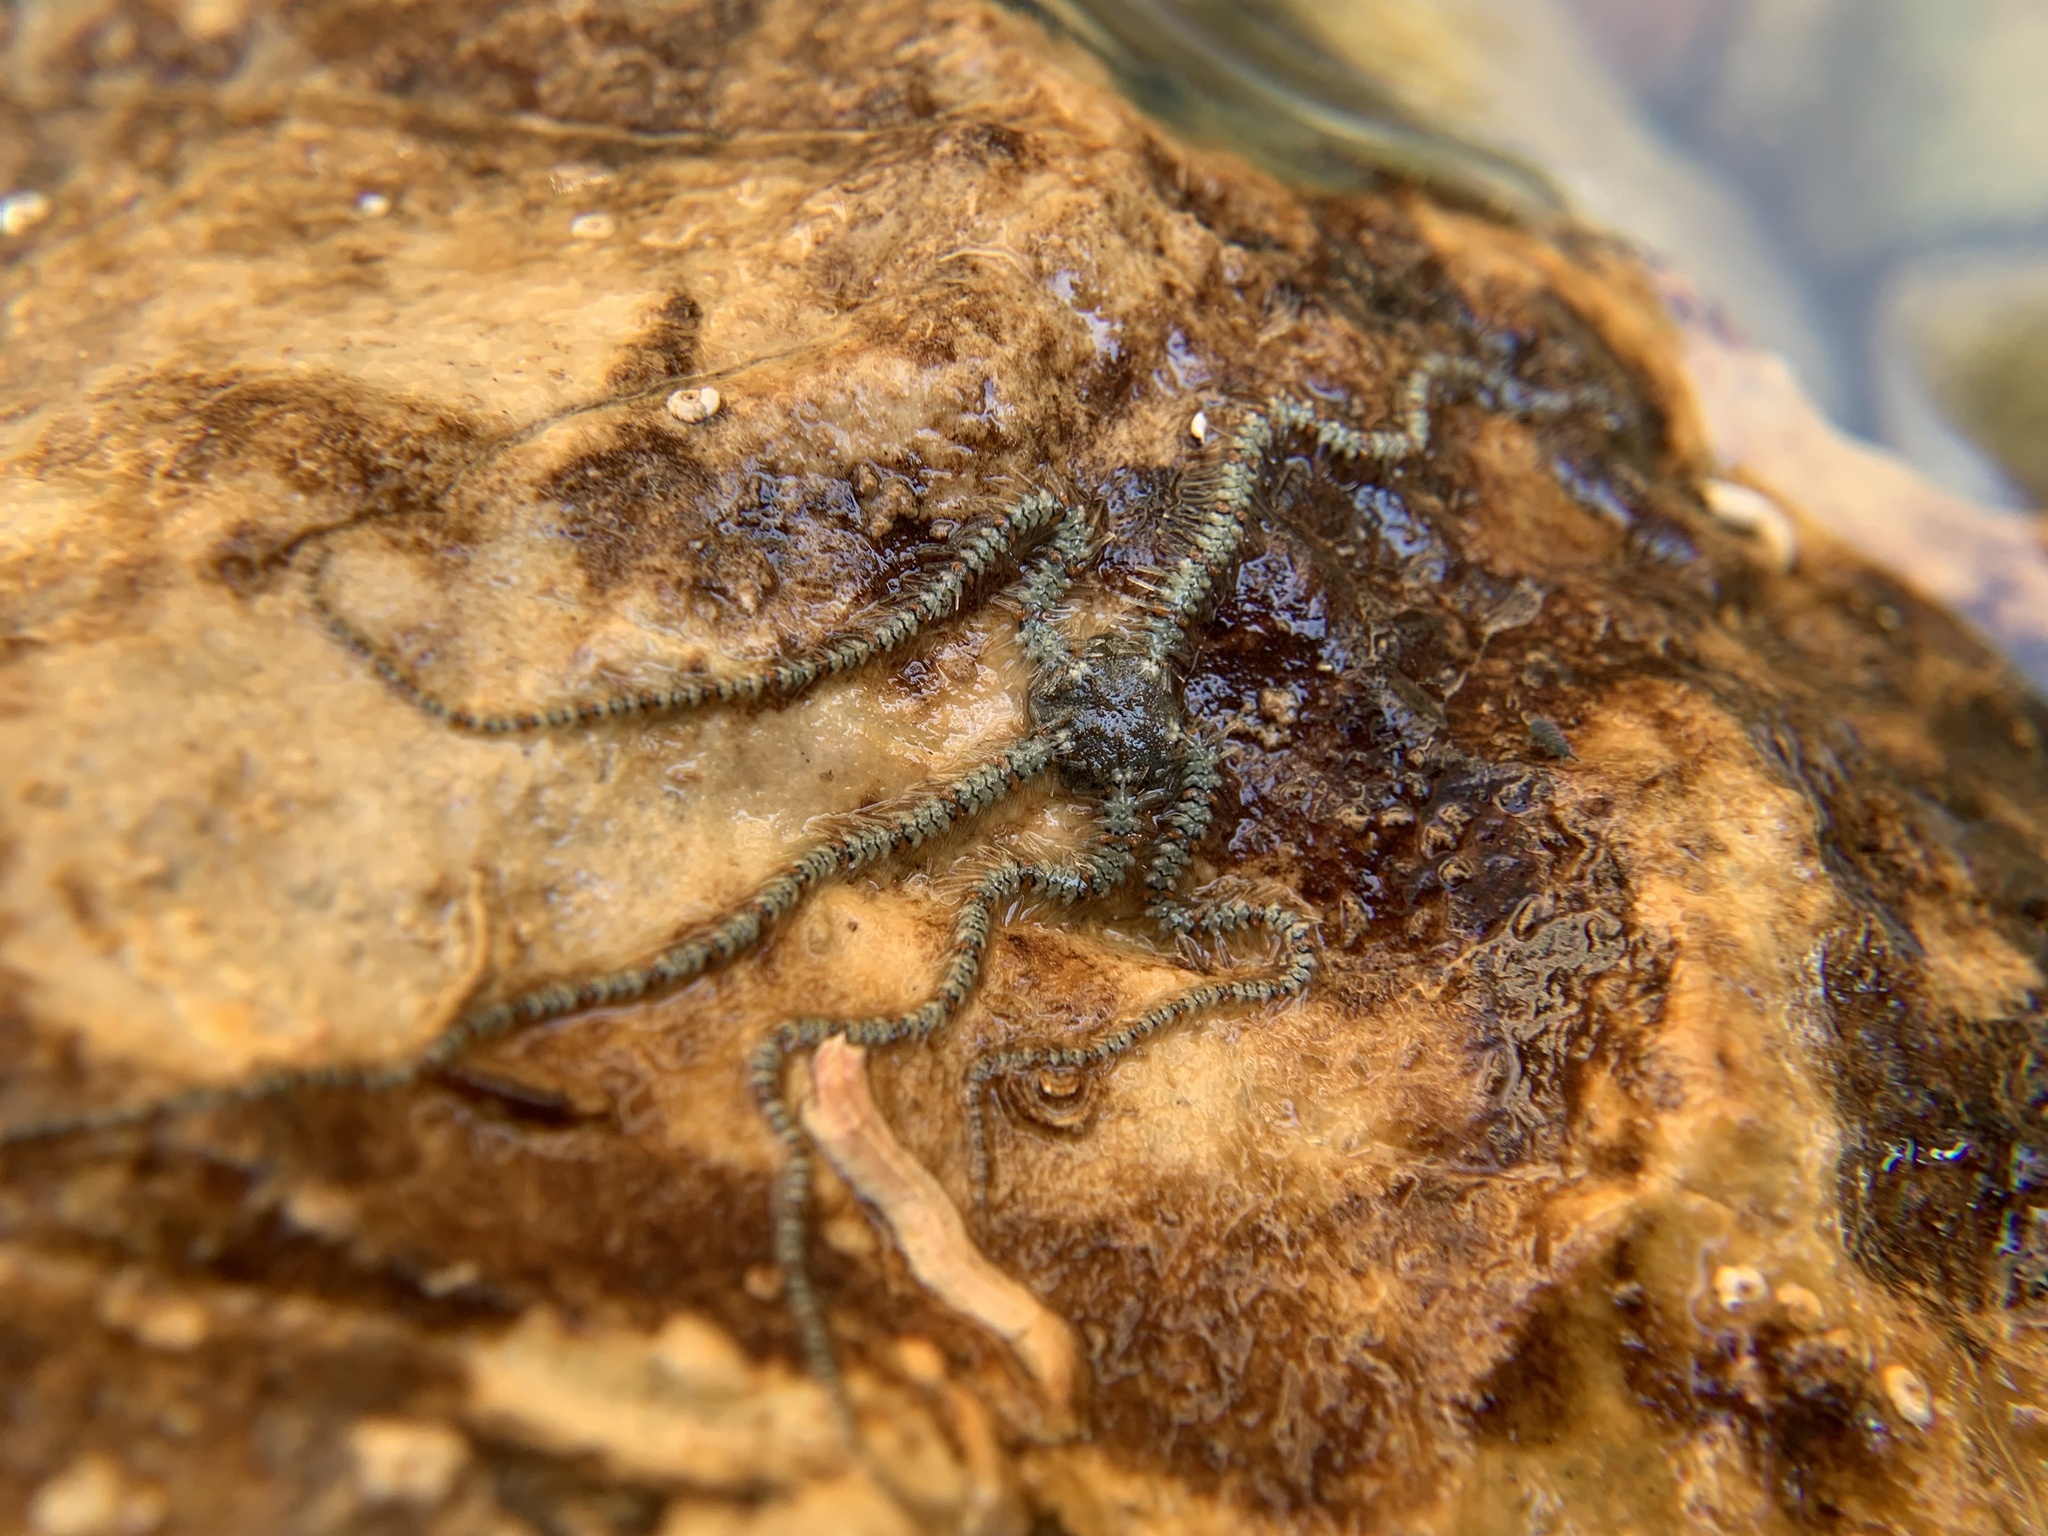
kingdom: Animalia
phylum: Echinodermata
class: Ophiuroidea
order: Amphilepidida
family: Ophiotrichidae
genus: Ophiothrix
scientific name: Ophiothrix fragilis
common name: Common brittlestar
